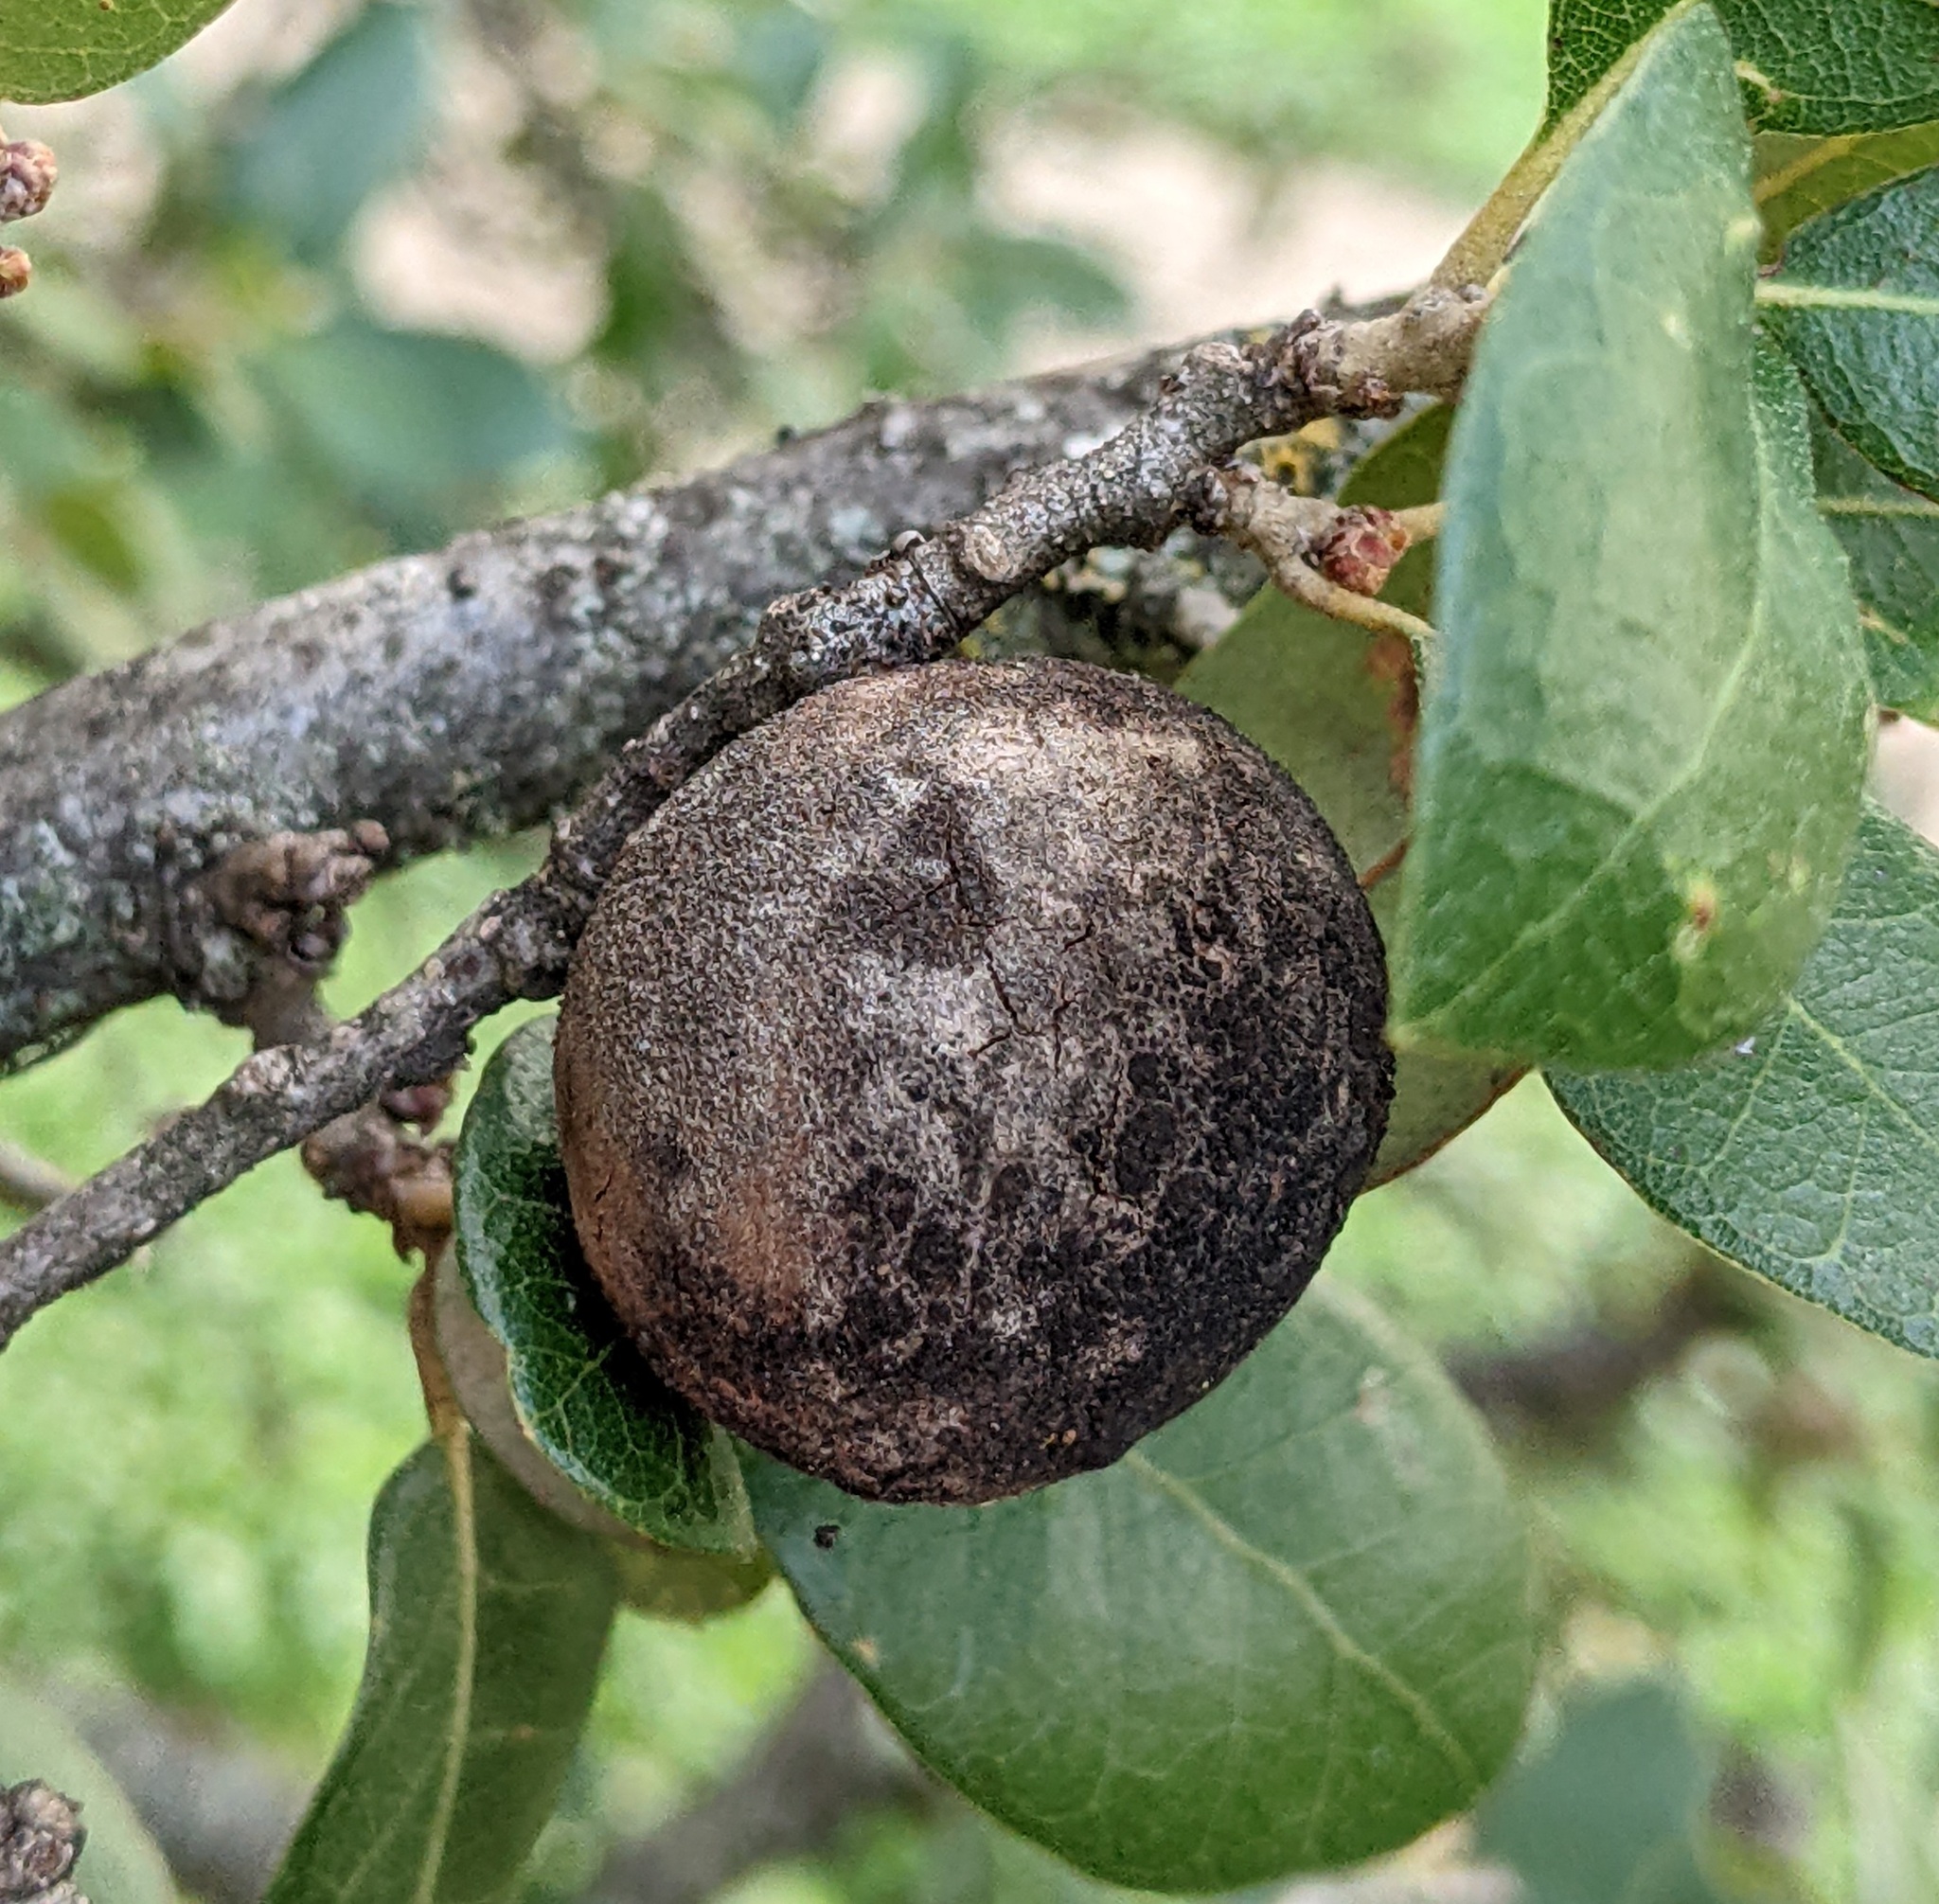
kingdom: Animalia
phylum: Arthropoda
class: Insecta
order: Hymenoptera
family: Cynipidae
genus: Disholcaspis
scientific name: Disholcaspis
